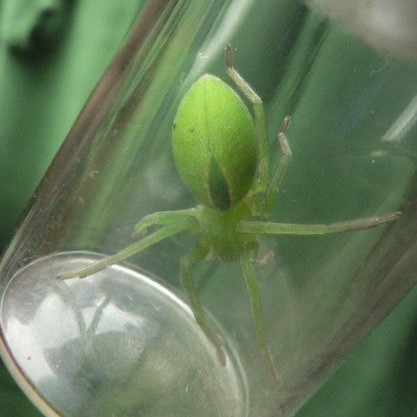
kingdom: Animalia
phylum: Arthropoda
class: Arachnida
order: Araneae
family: Sparassidae
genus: Micrommata
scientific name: Micrommata virescens
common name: Green spider
